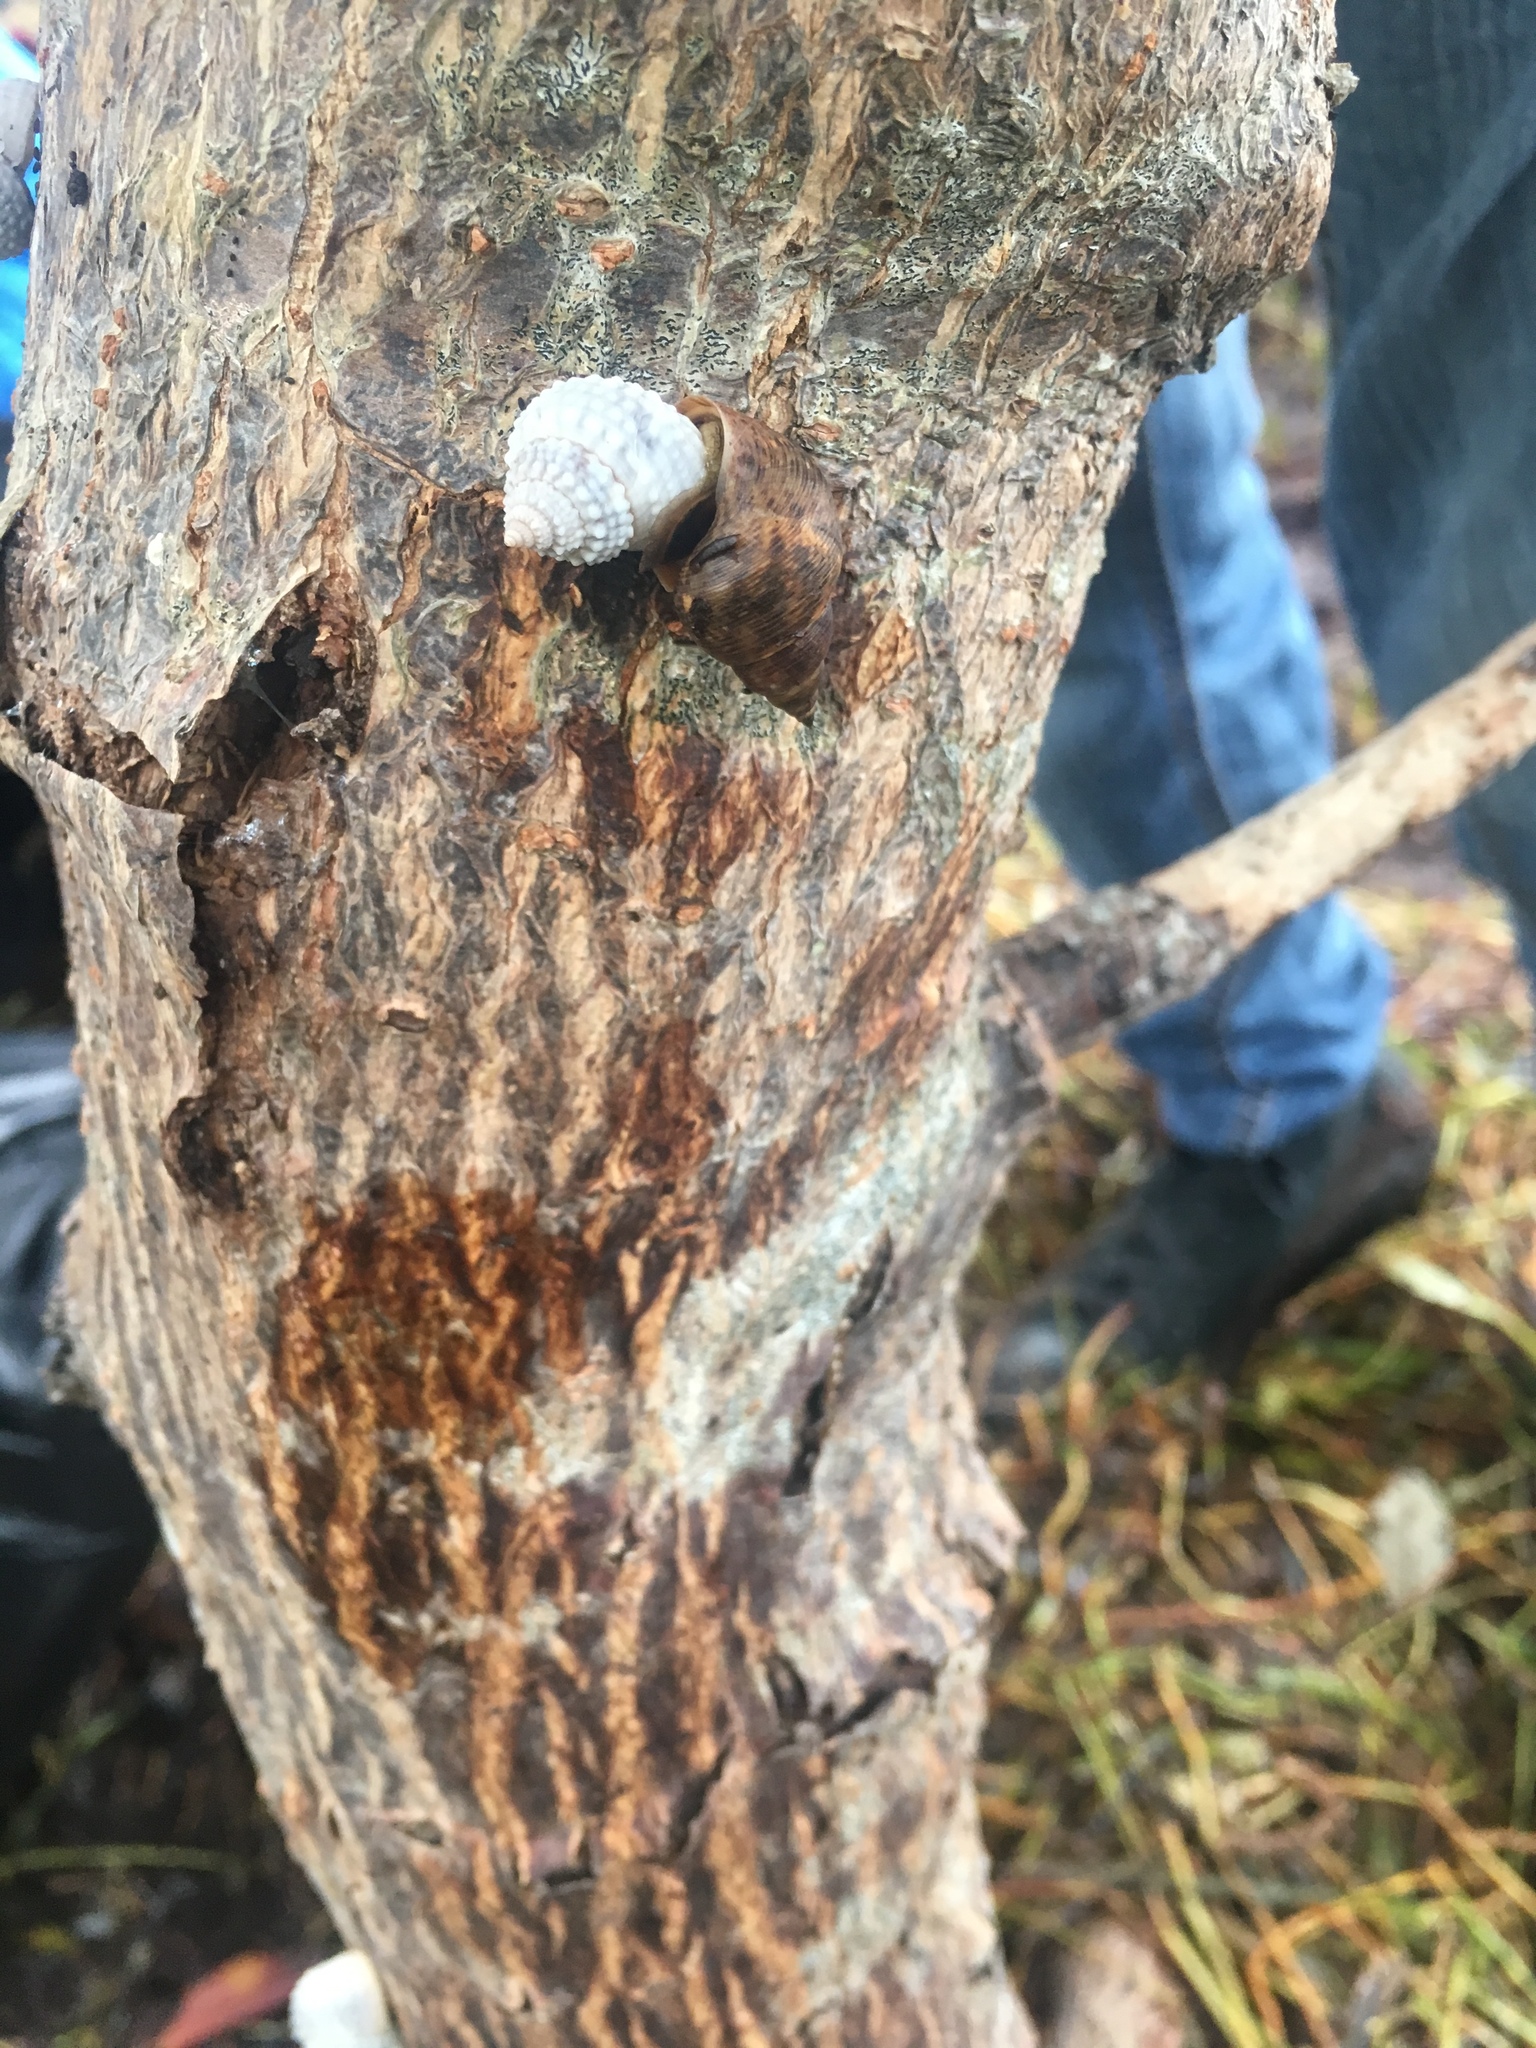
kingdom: Animalia
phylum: Mollusca
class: Gastropoda
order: Littorinimorpha
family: Littorinidae
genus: Cenchritis
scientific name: Cenchritis muricatus
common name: Beaded periwinkle
